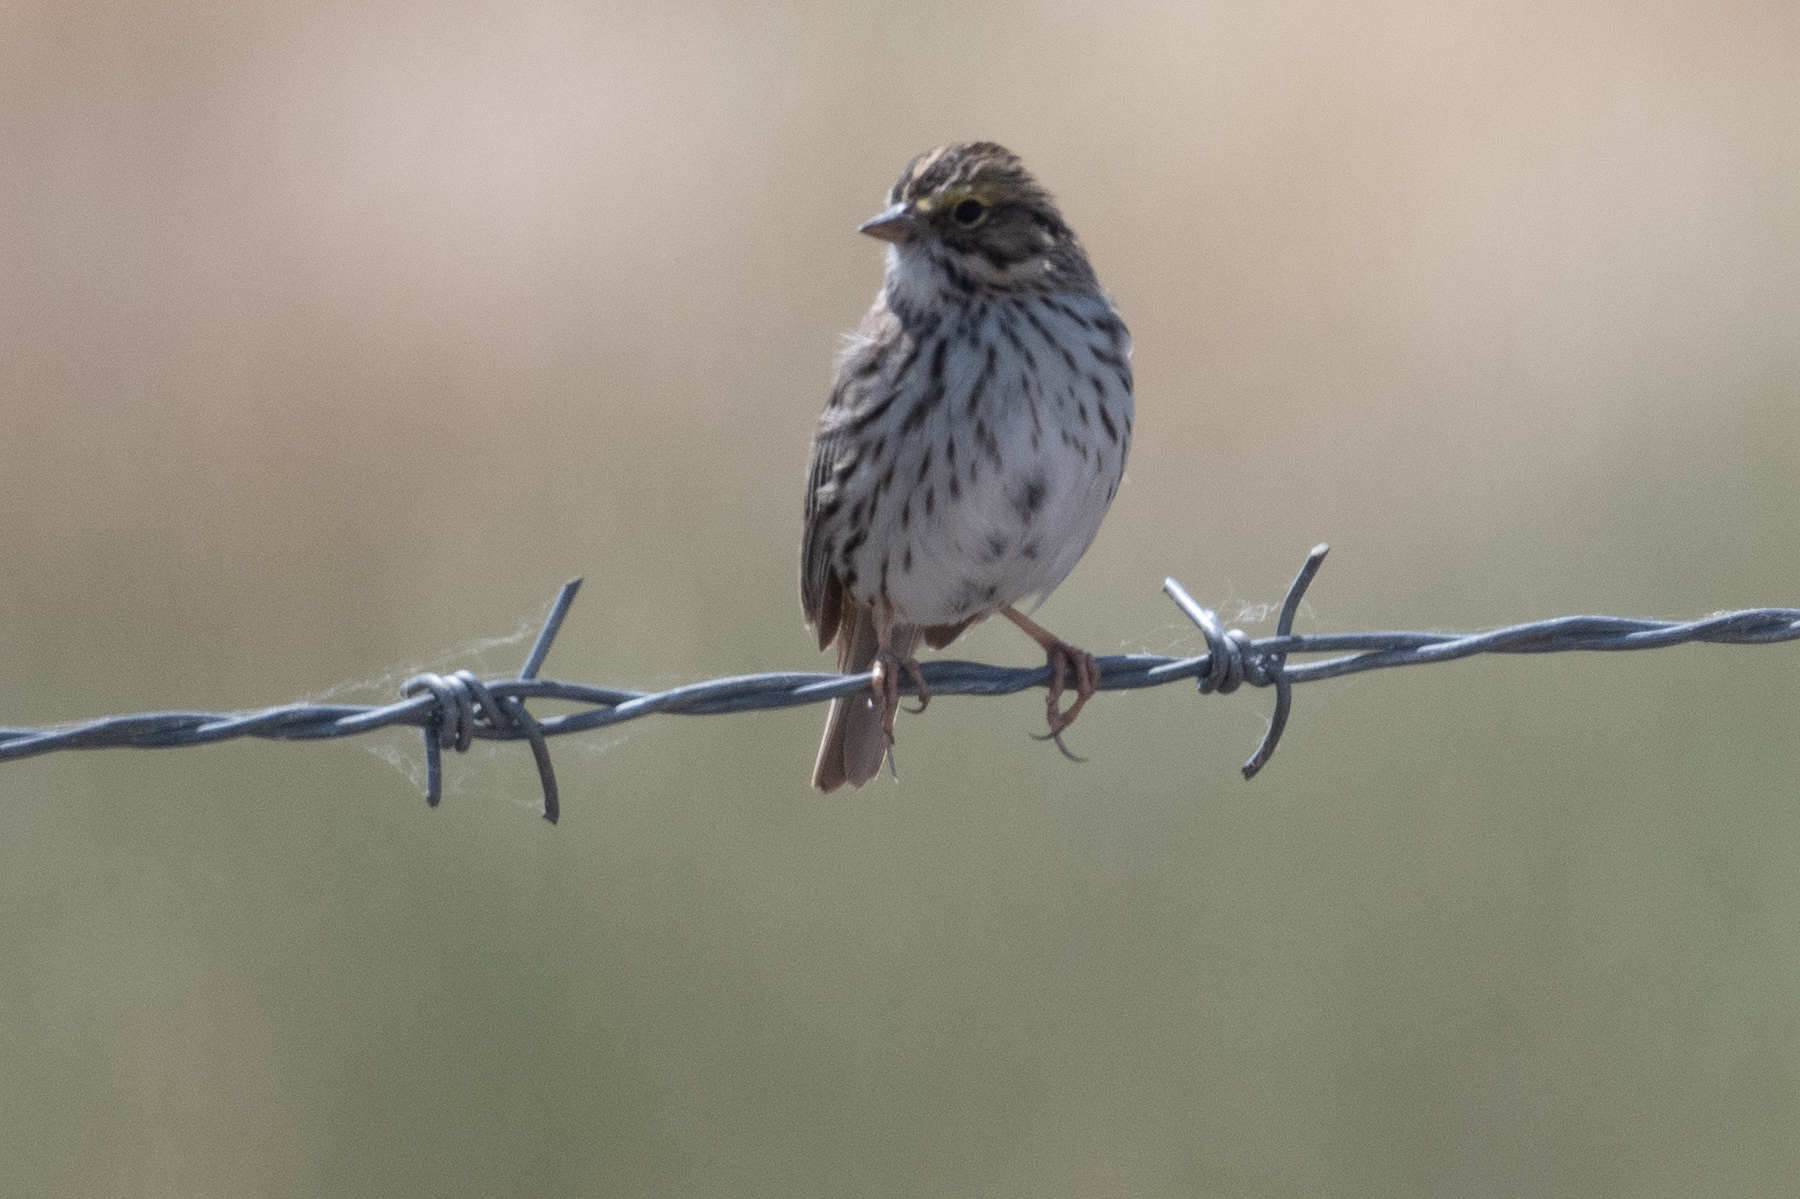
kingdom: Animalia
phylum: Chordata
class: Aves
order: Passeriformes
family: Passerellidae
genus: Passerculus
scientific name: Passerculus sandwichensis
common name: Savannah sparrow
